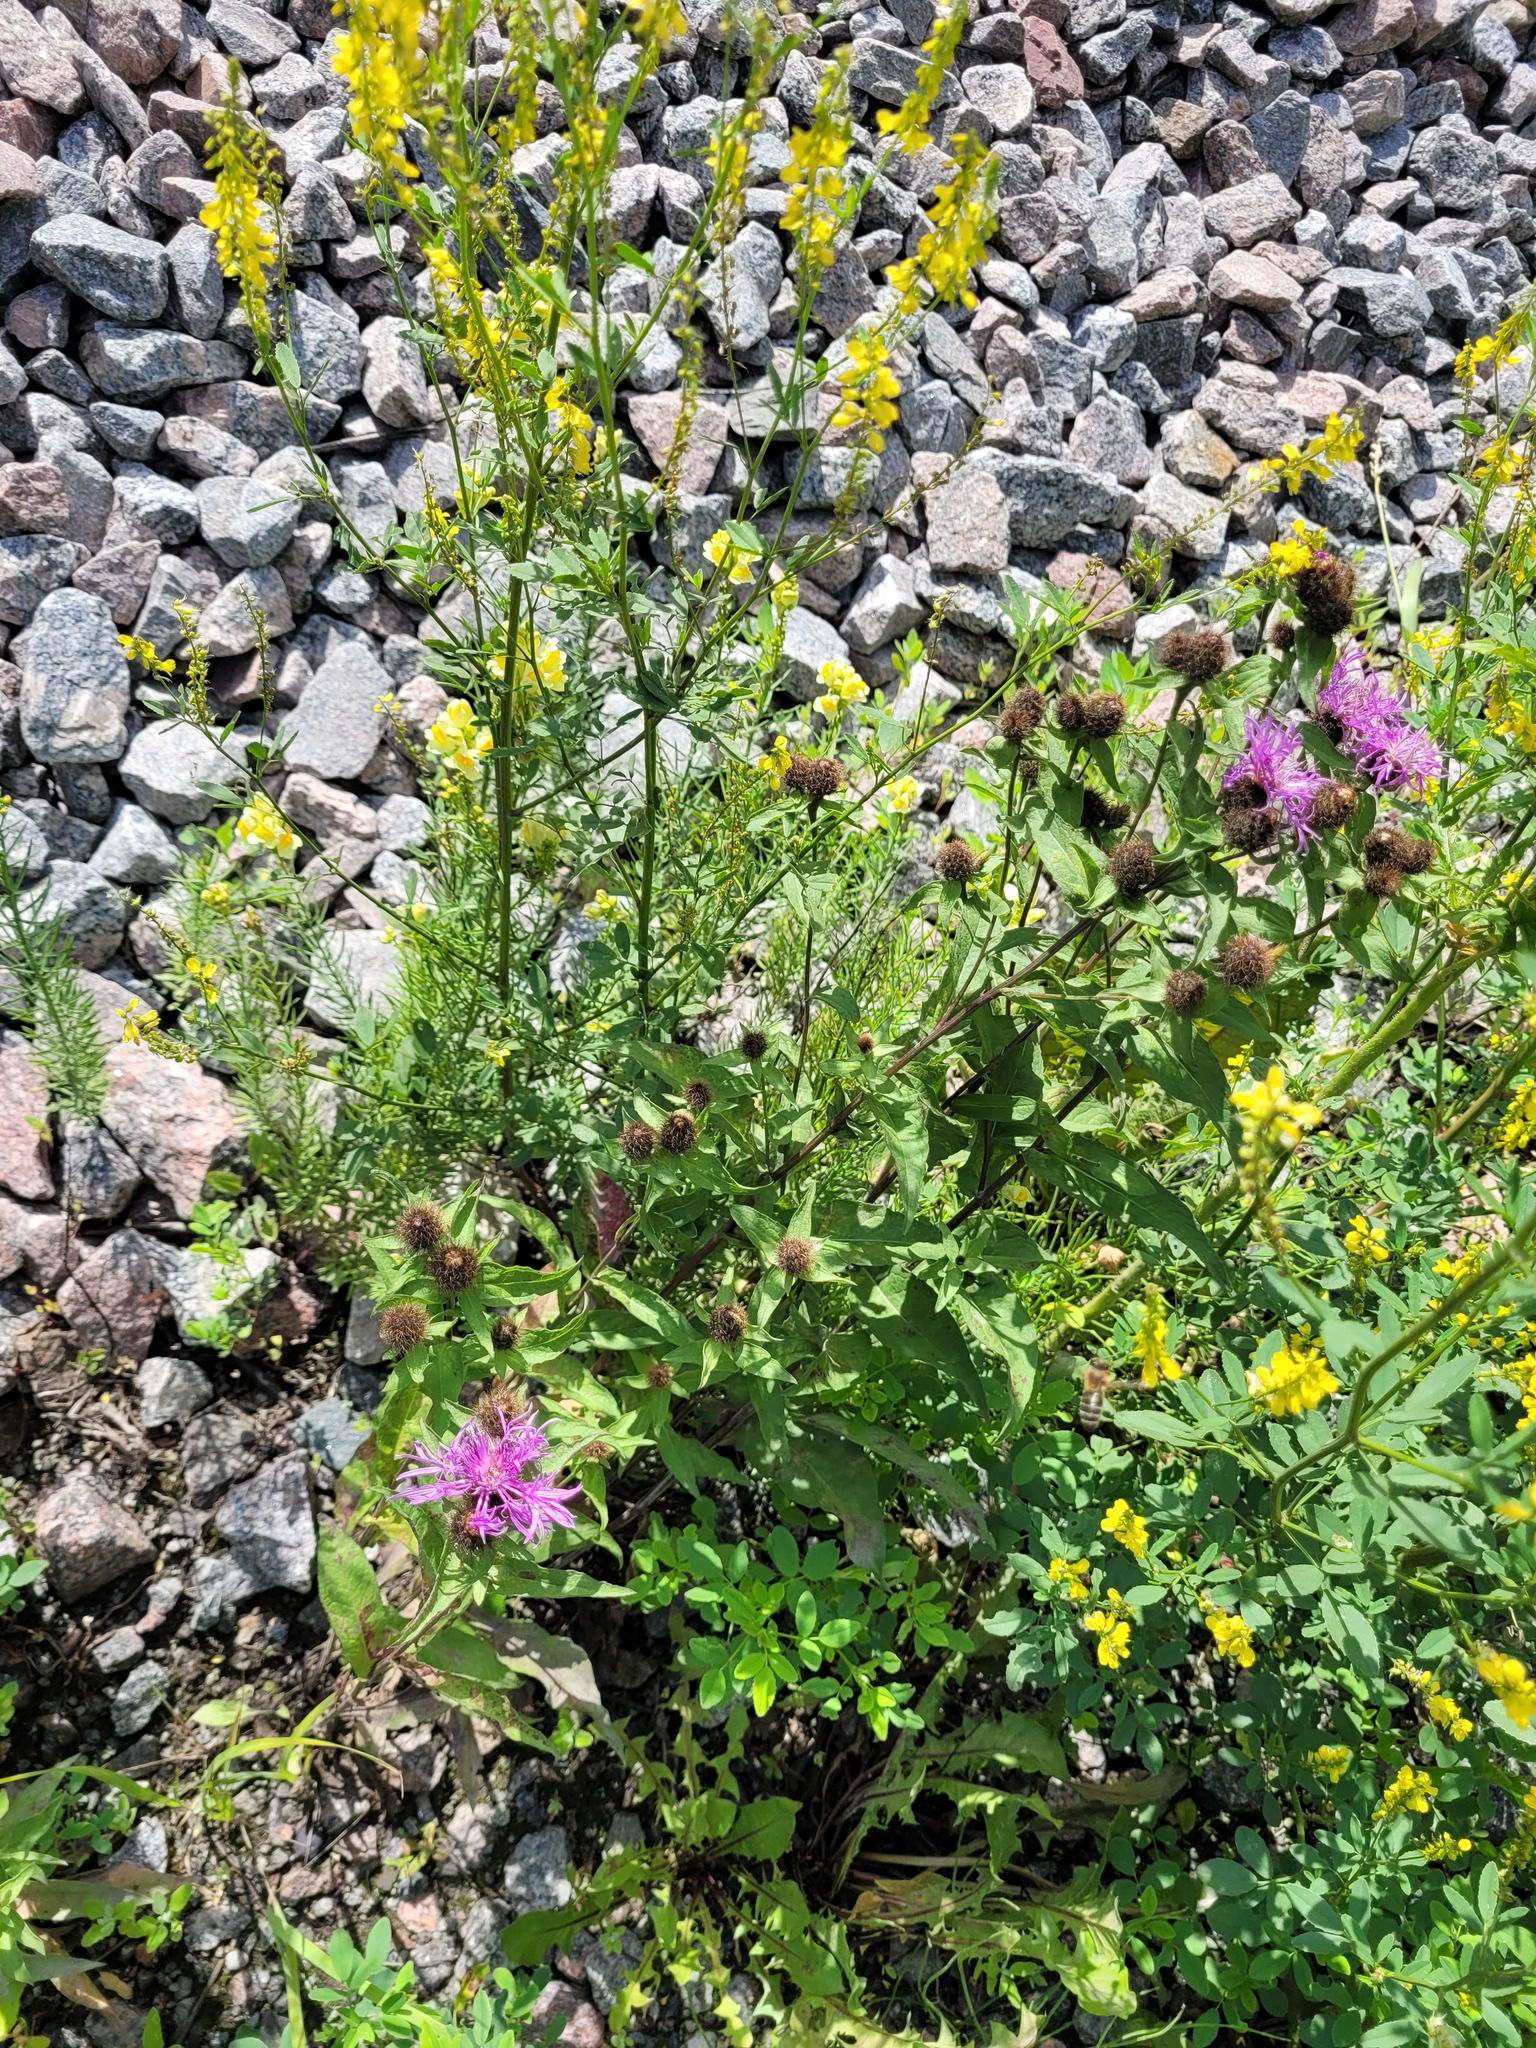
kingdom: Plantae
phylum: Tracheophyta
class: Magnoliopsida
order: Asterales
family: Asteraceae
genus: Centaurea
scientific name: Centaurea pseudophrygia
